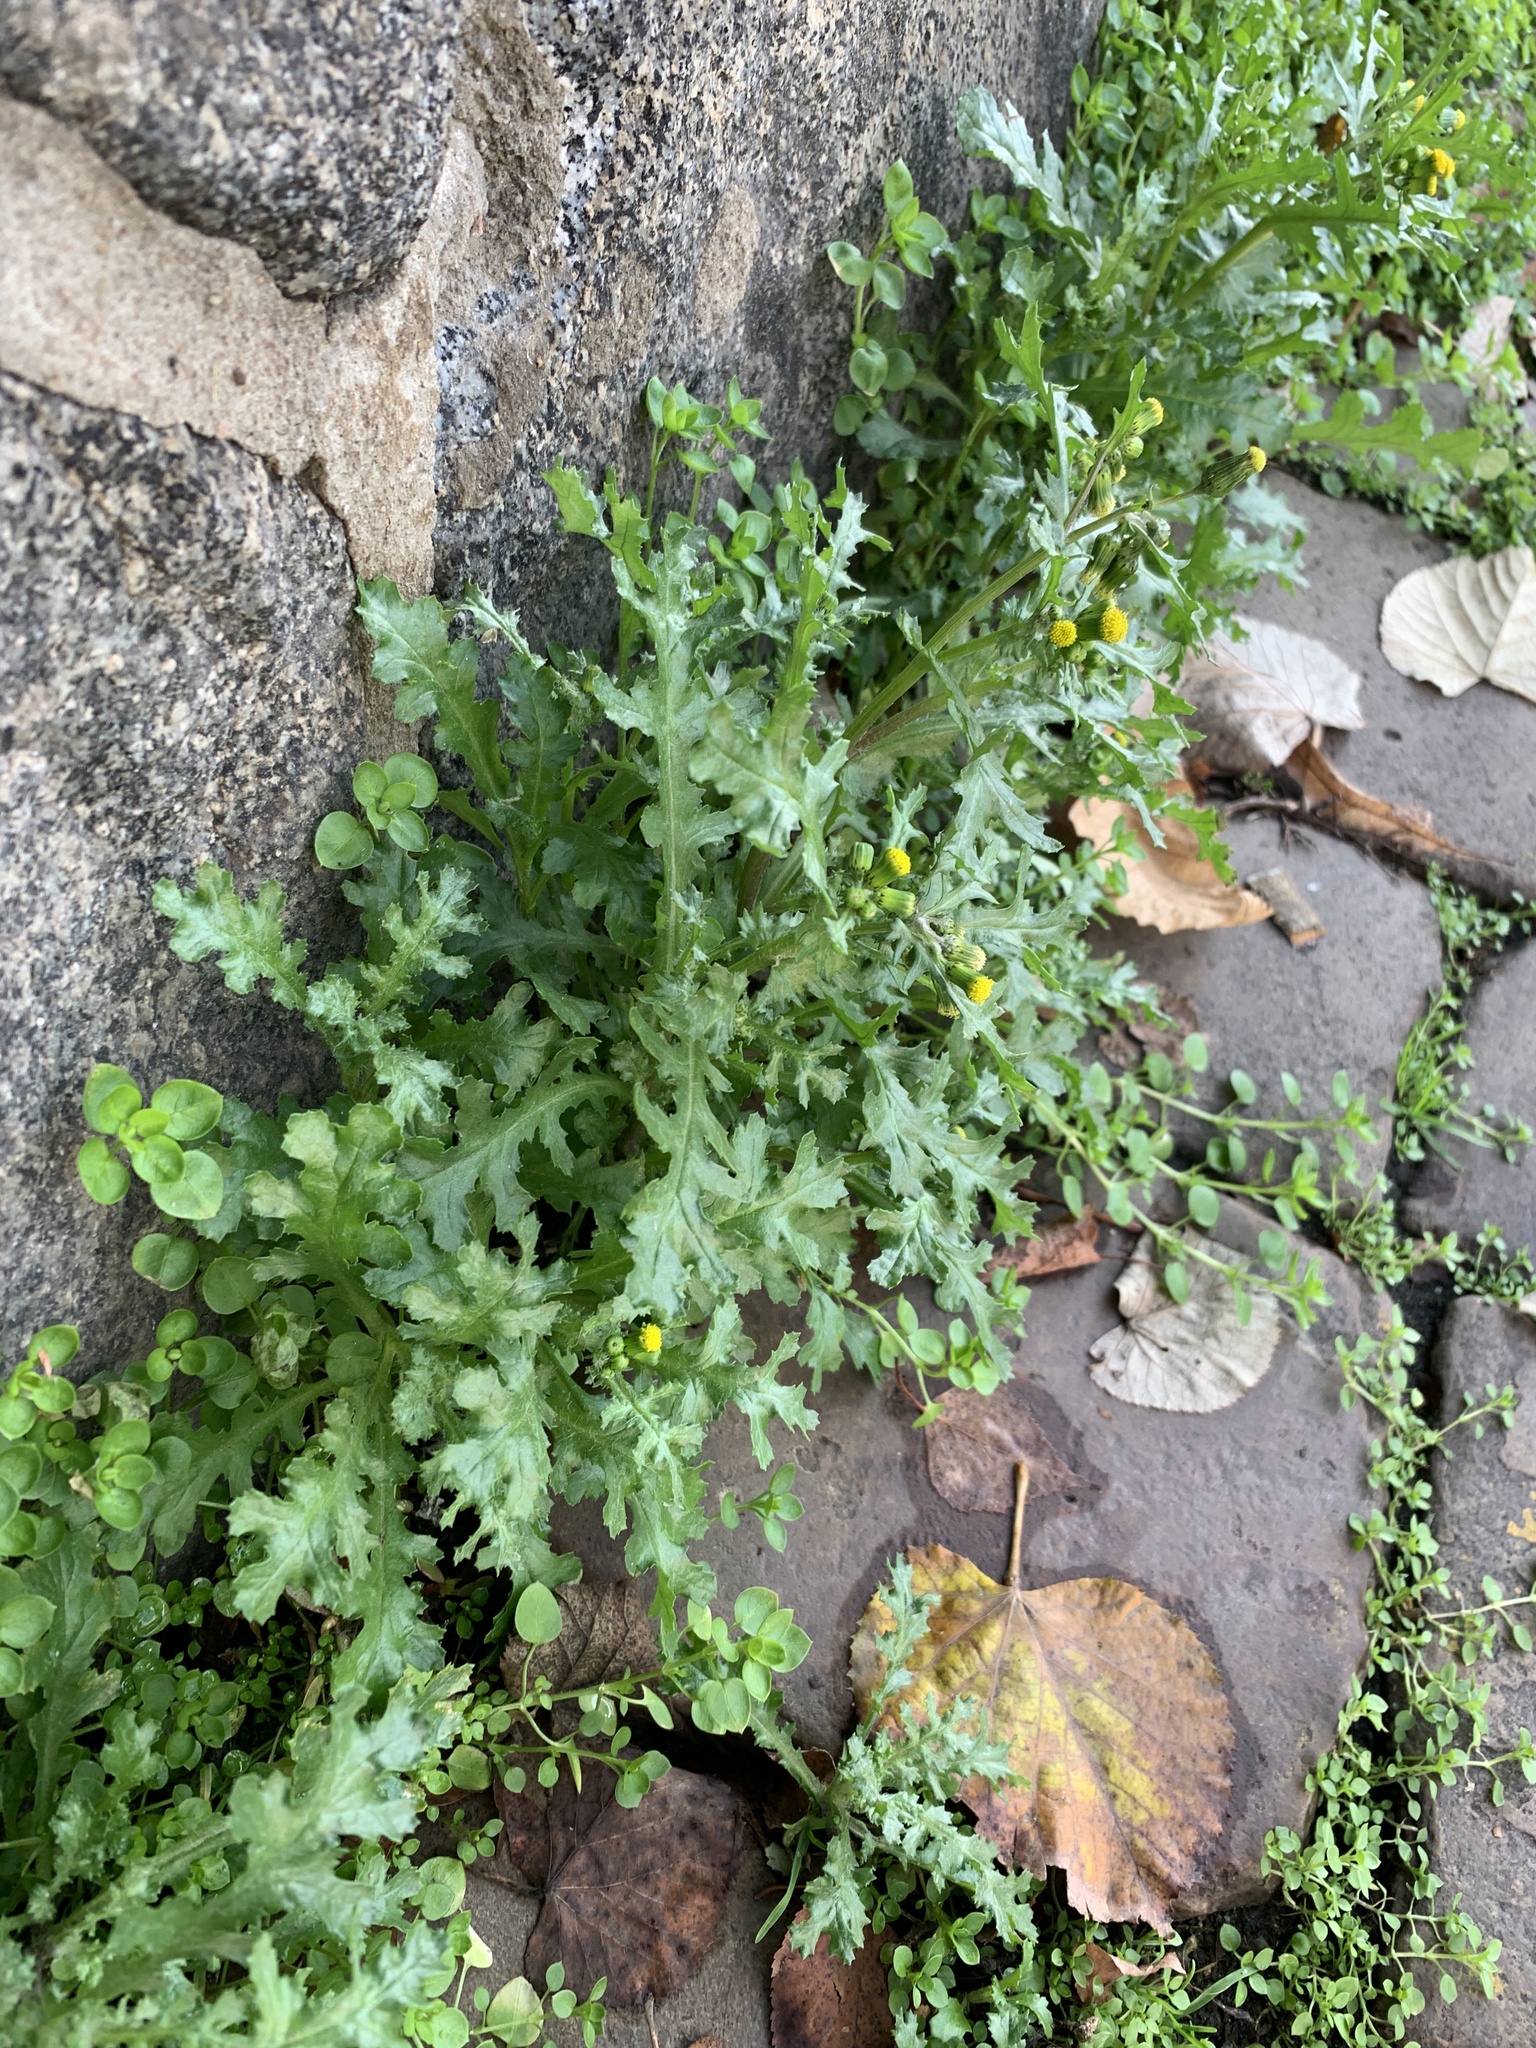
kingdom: Plantae
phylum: Tracheophyta
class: Magnoliopsida
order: Asterales
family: Asteraceae
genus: Senecio
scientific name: Senecio vulgaris
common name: Old-man-in-the-spring
